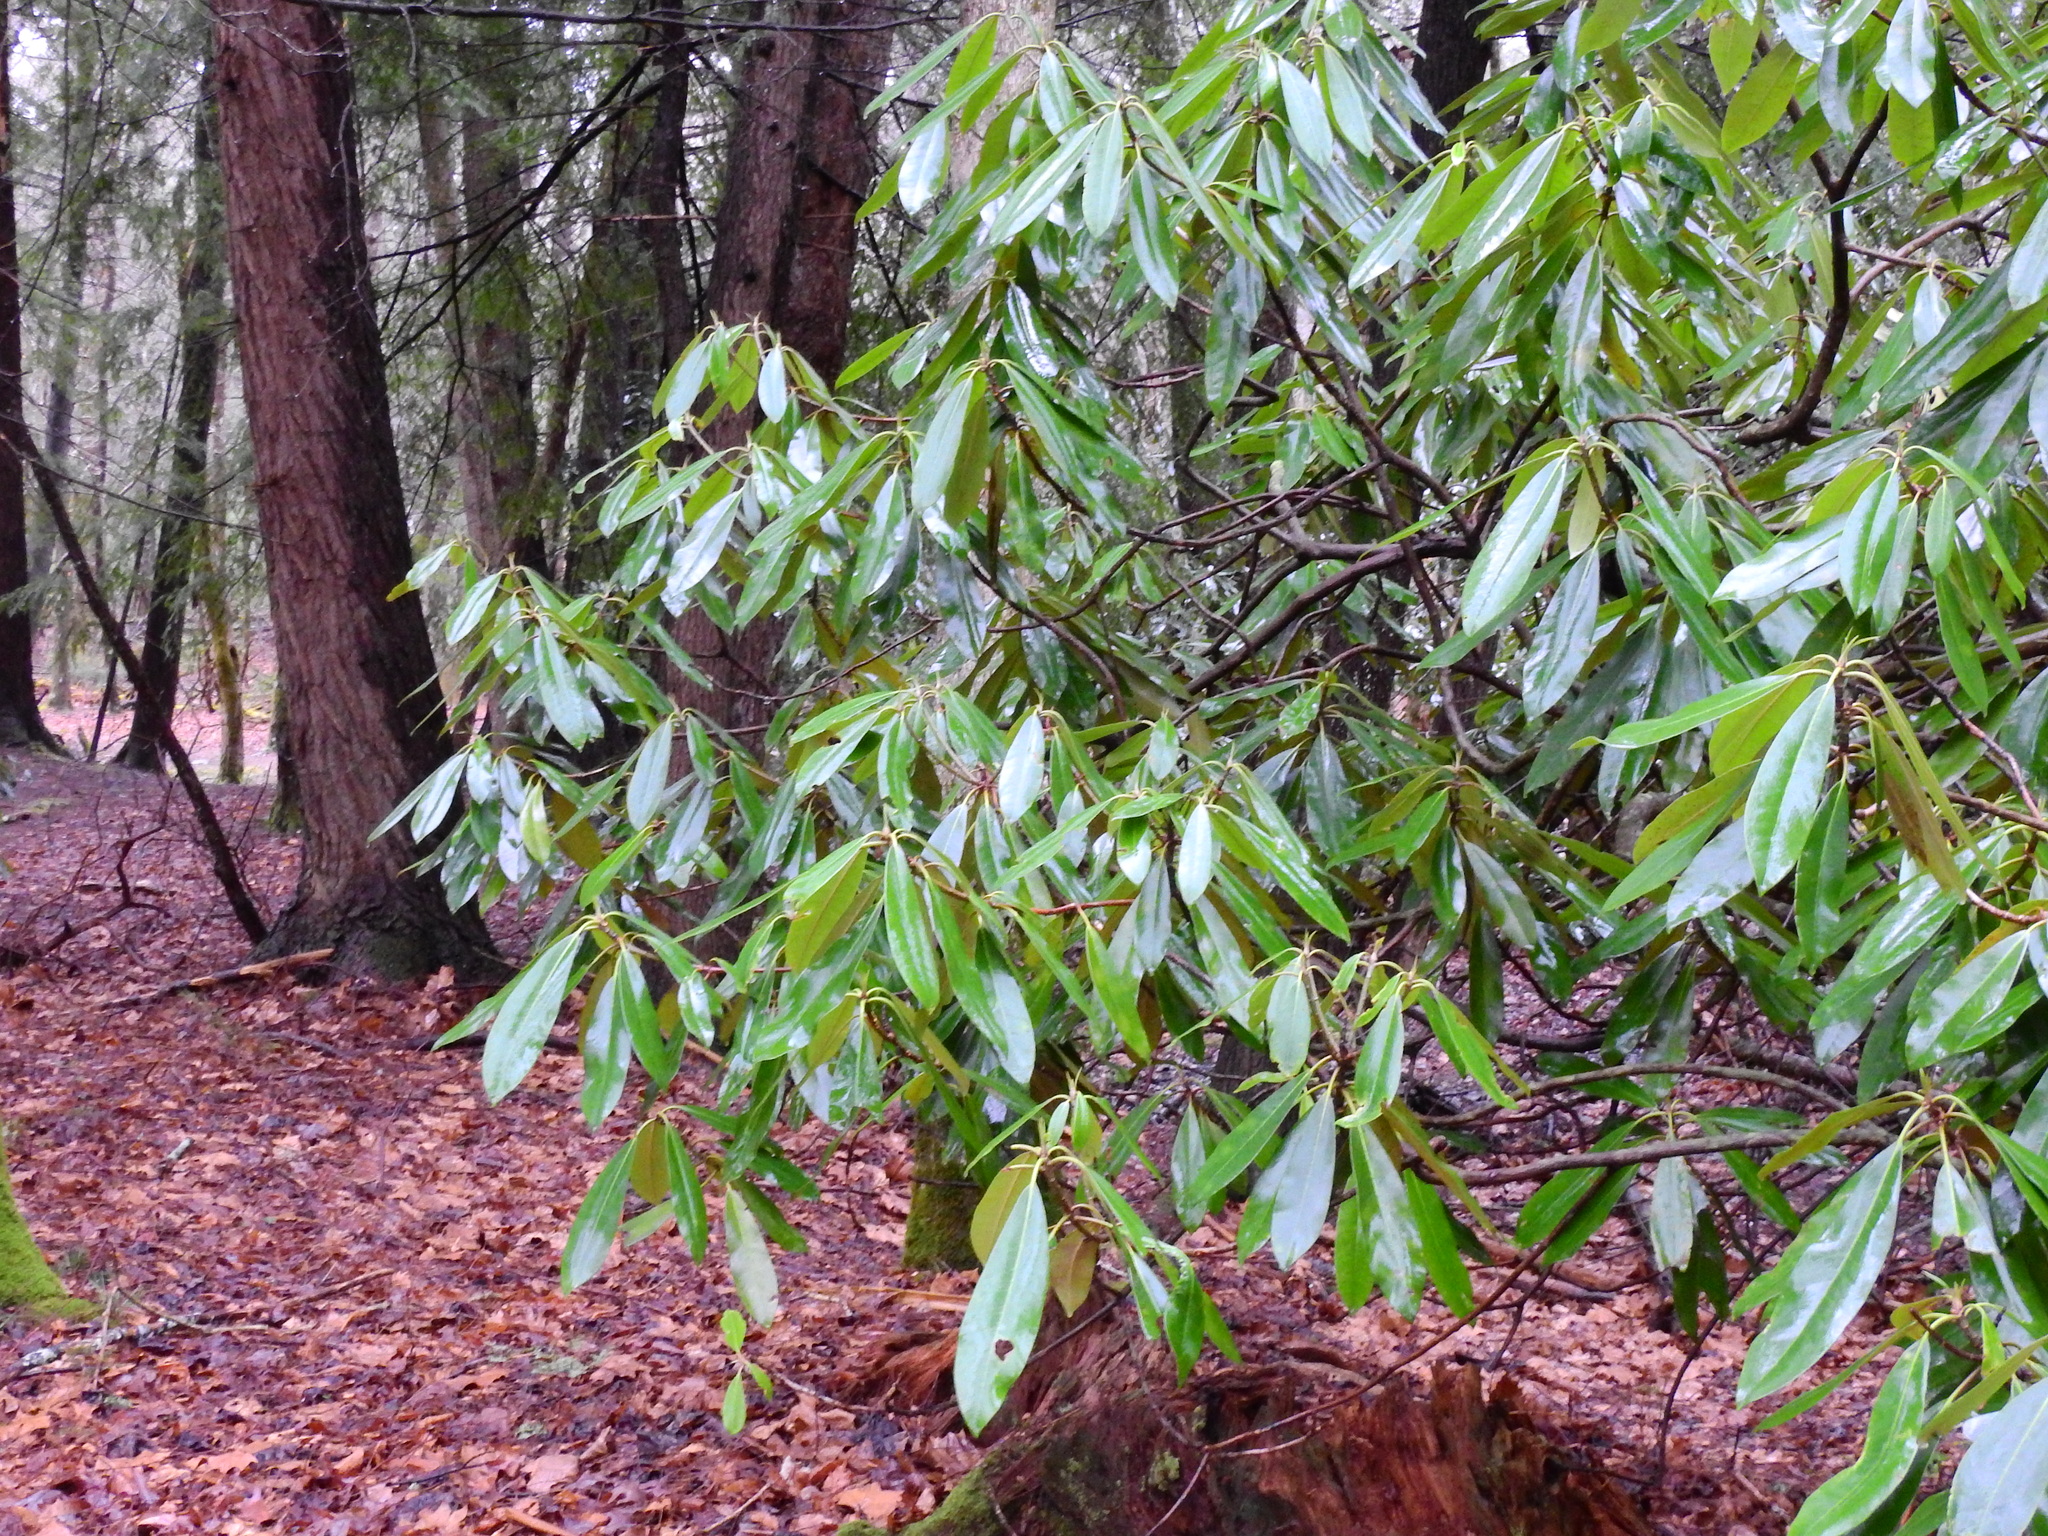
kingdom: Plantae
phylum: Tracheophyta
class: Magnoliopsida
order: Ericales
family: Ericaceae
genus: Rhododendron
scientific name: Rhododendron maximum
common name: Great rhododendron
